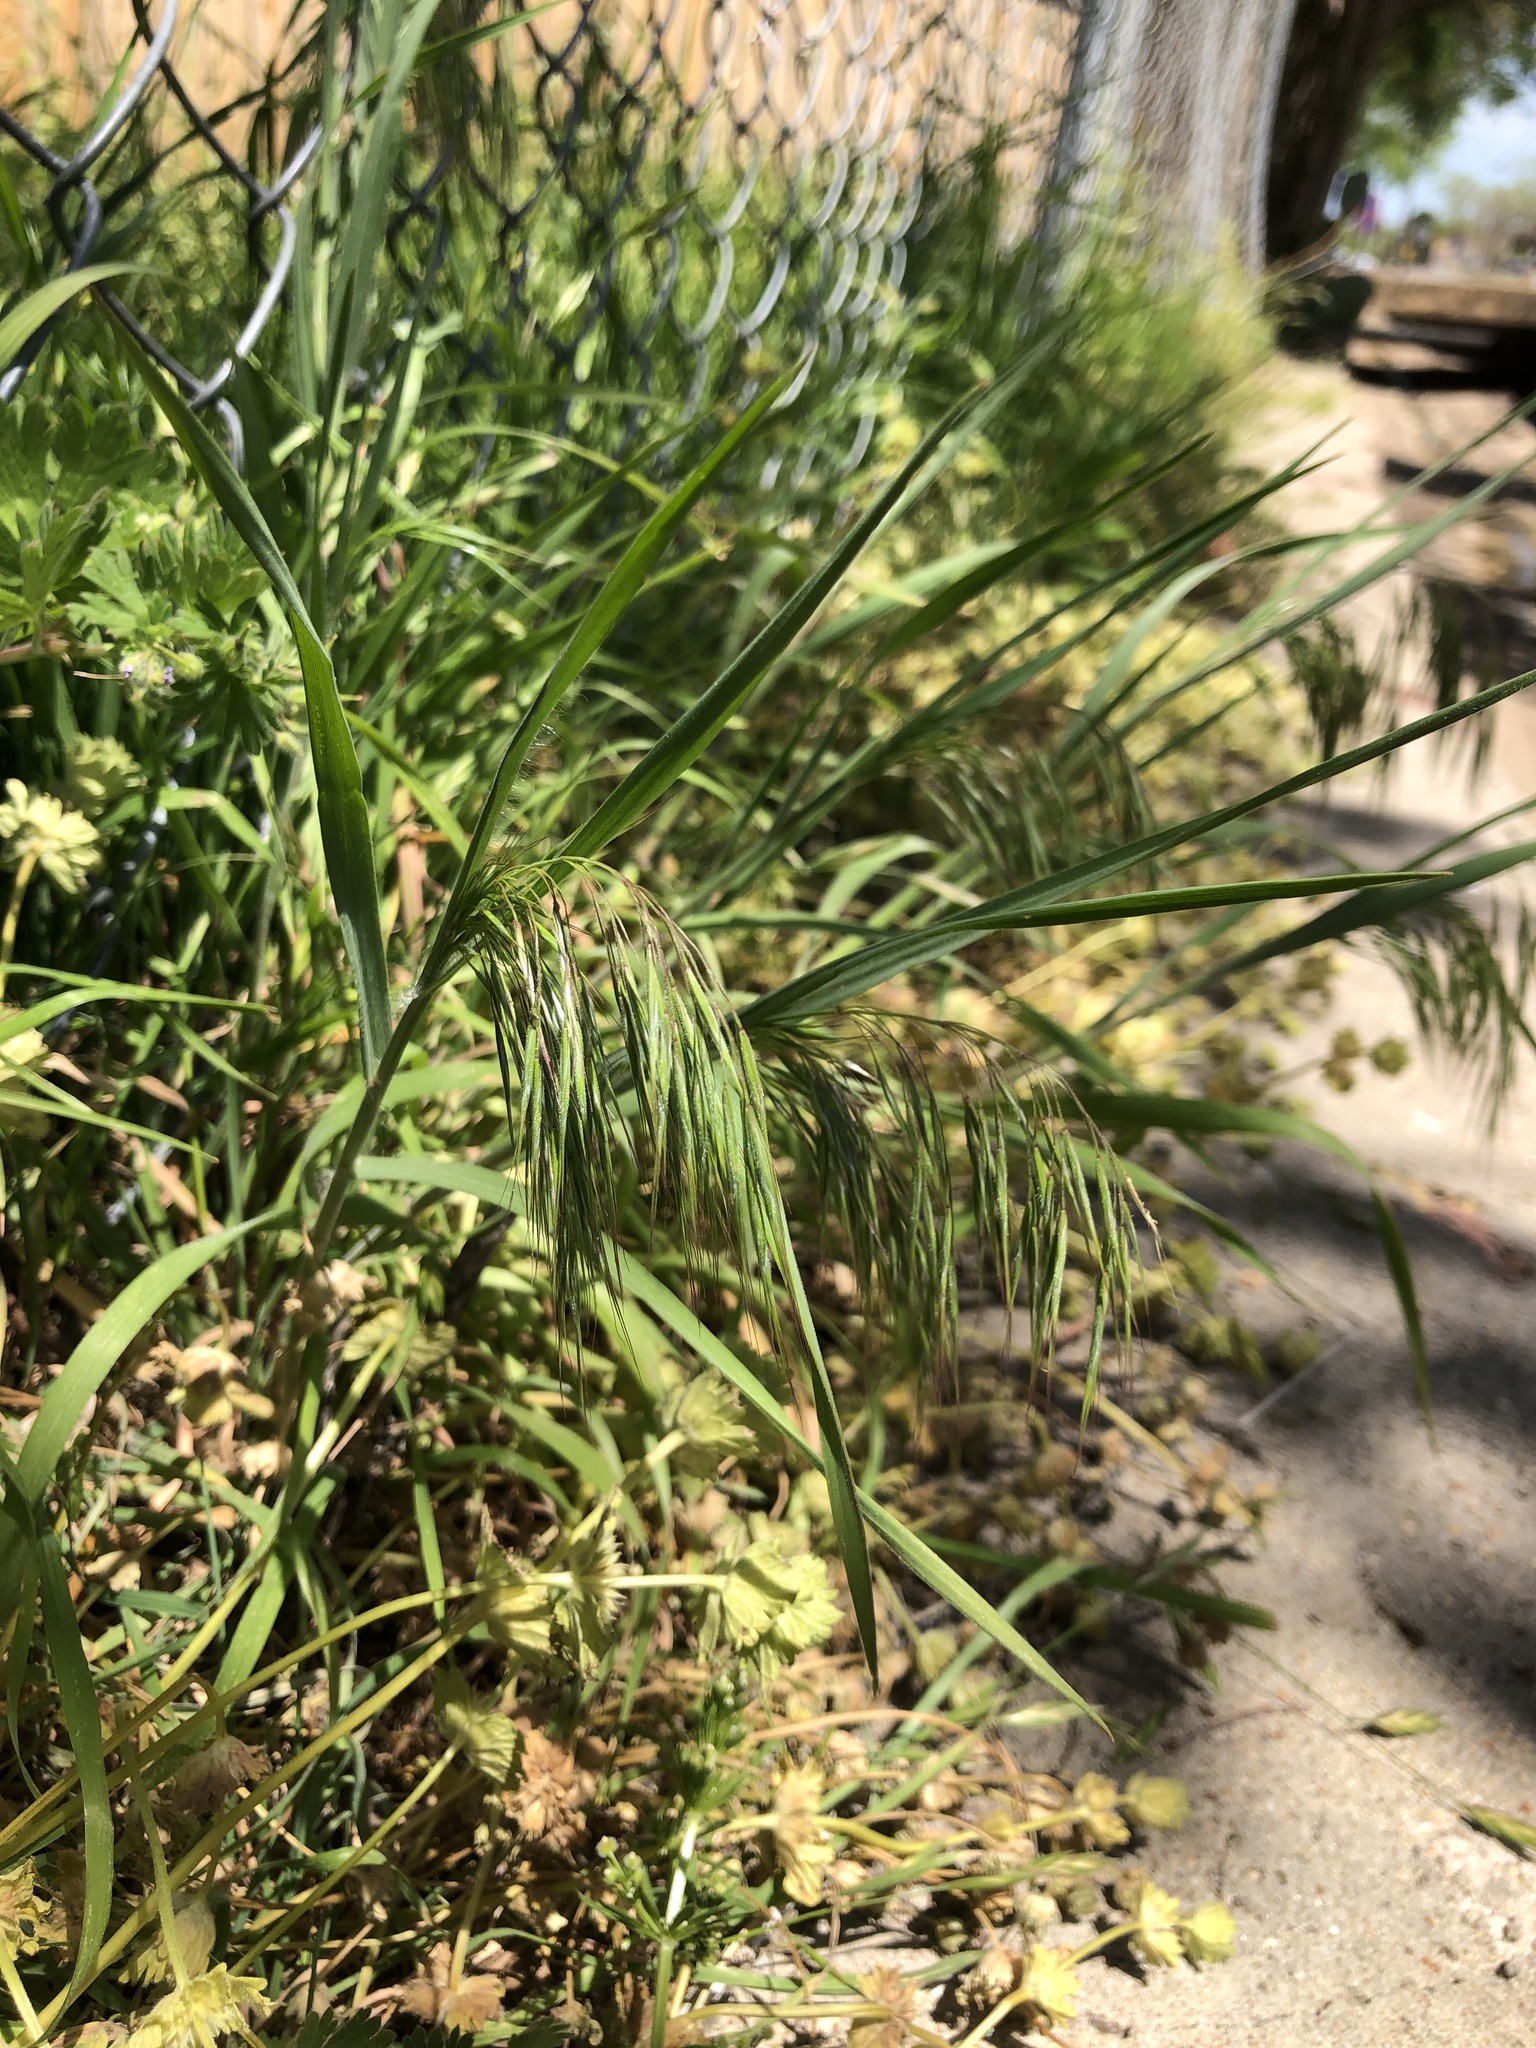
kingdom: Plantae
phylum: Tracheophyta
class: Liliopsida
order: Poales
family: Poaceae
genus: Bromus
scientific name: Bromus tectorum
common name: Cheatgrass
